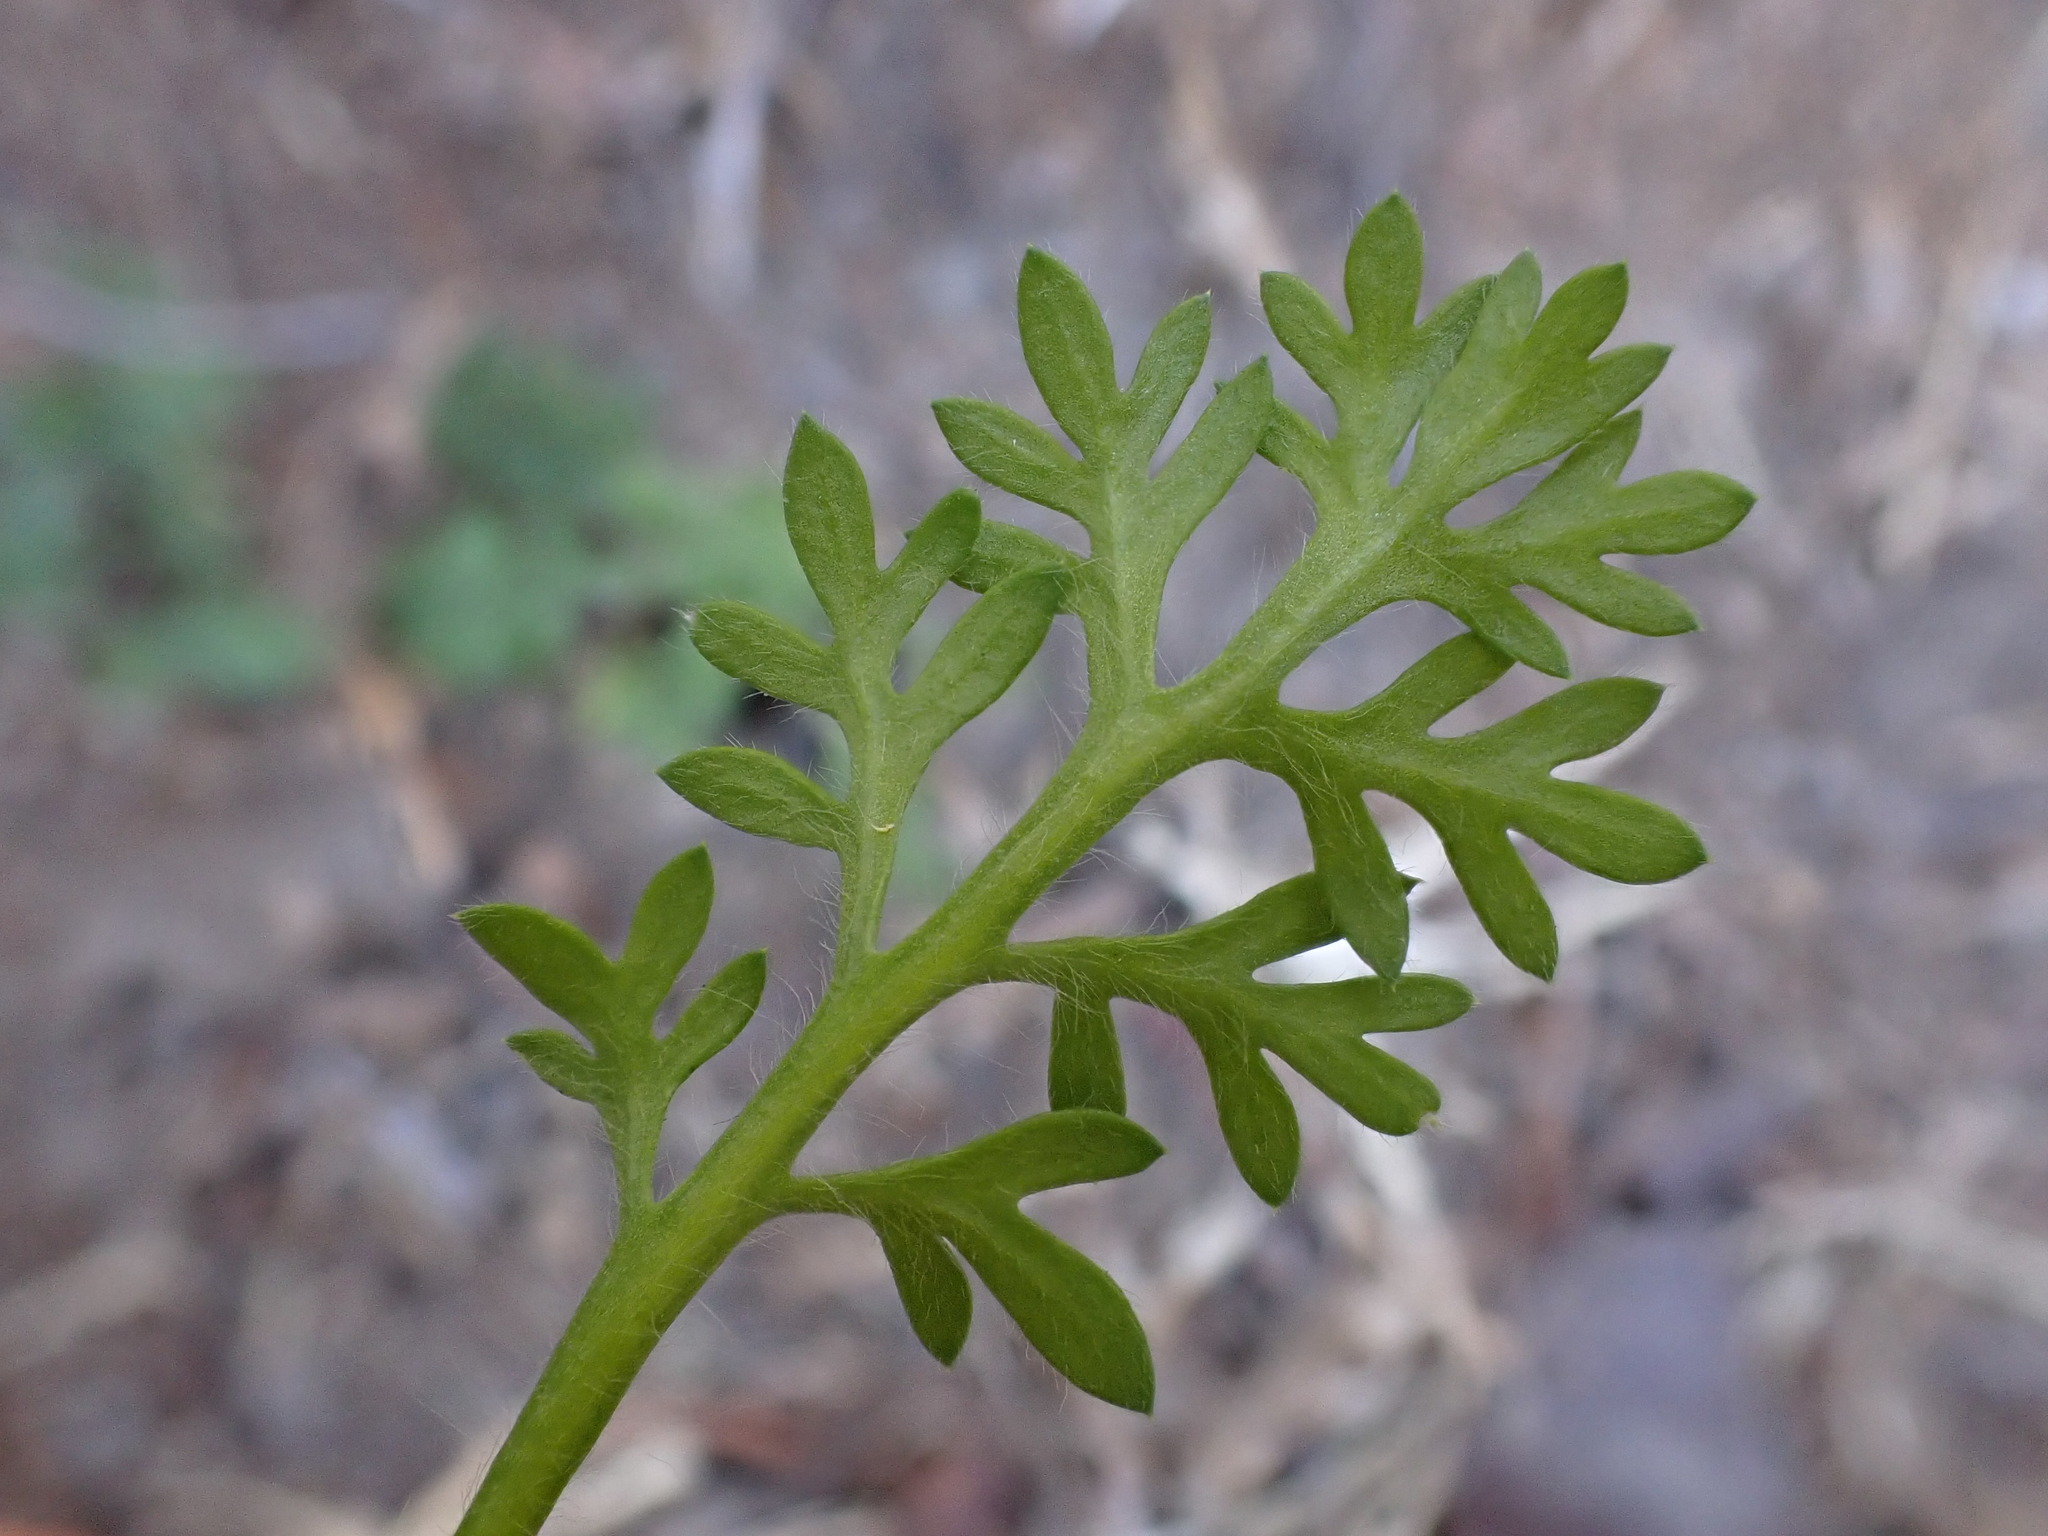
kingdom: Plantae
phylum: Tracheophyta
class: Magnoliopsida
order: Asterales
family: Asteraceae
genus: Cotula
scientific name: Cotula australis
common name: Australian waterbuttons
